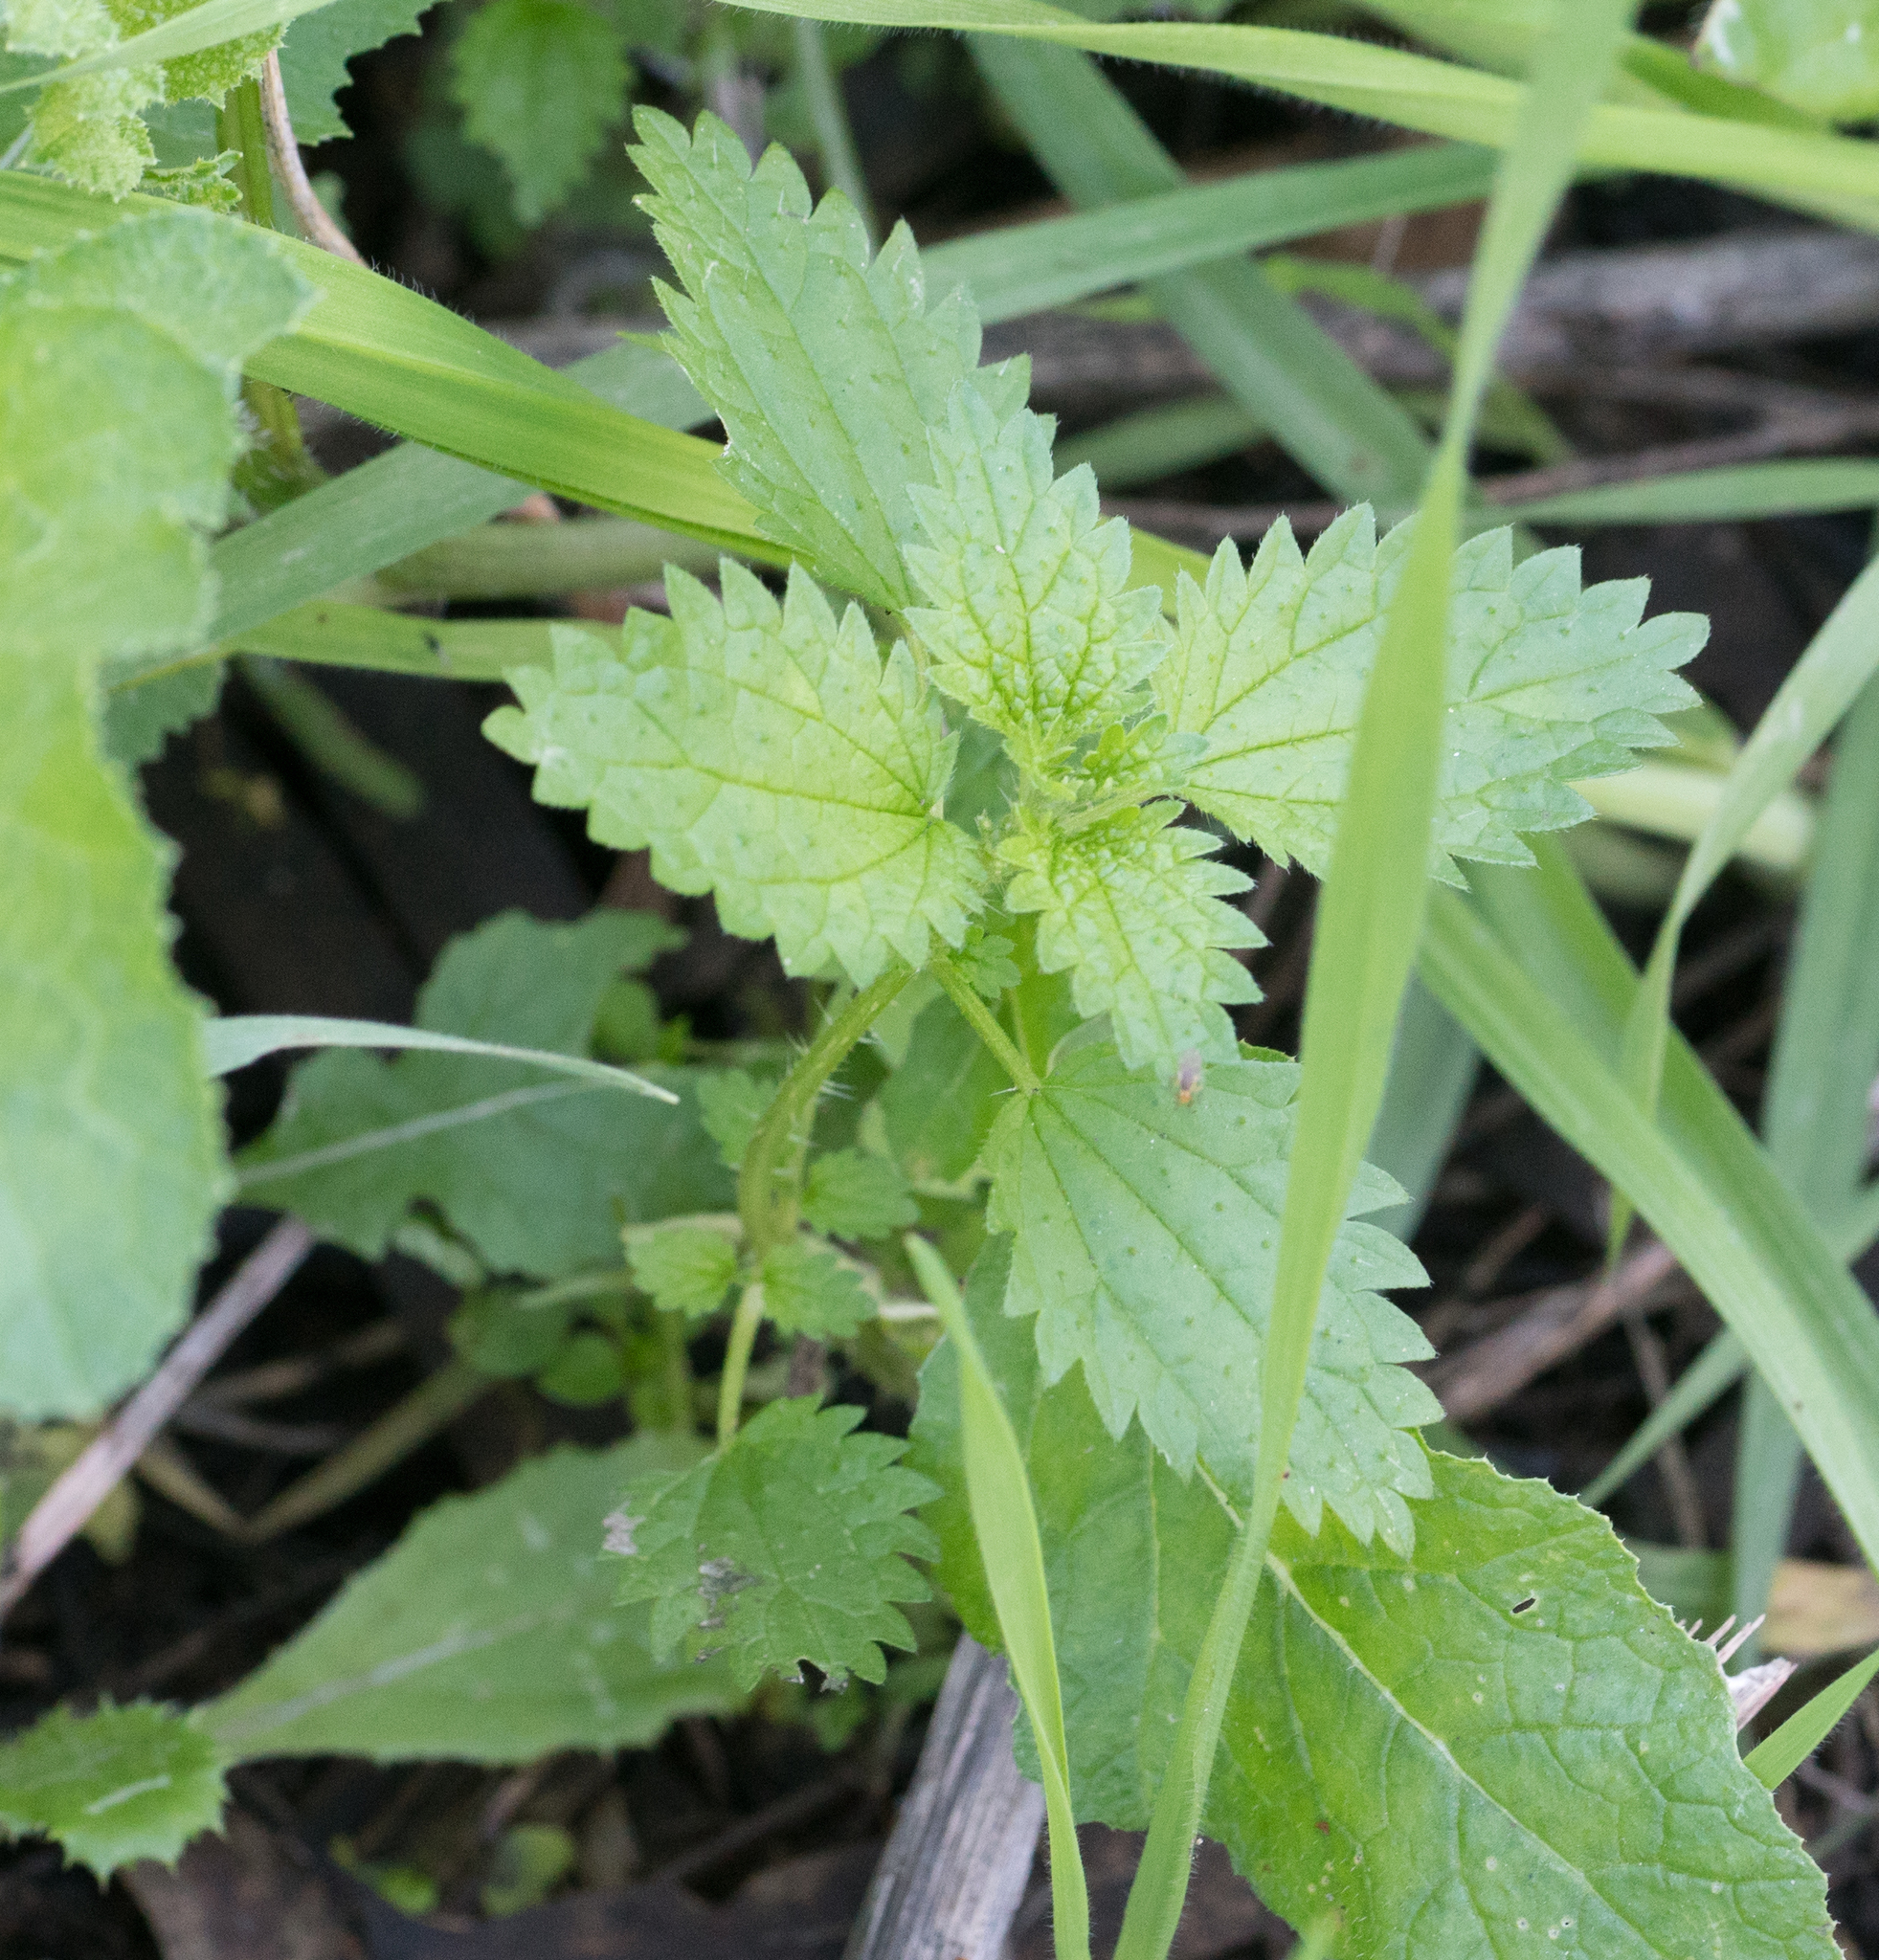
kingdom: Plantae
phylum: Tracheophyta
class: Magnoliopsida
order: Rosales
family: Urticaceae
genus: Urtica
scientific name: Urtica urens
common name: Dwarf nettle
